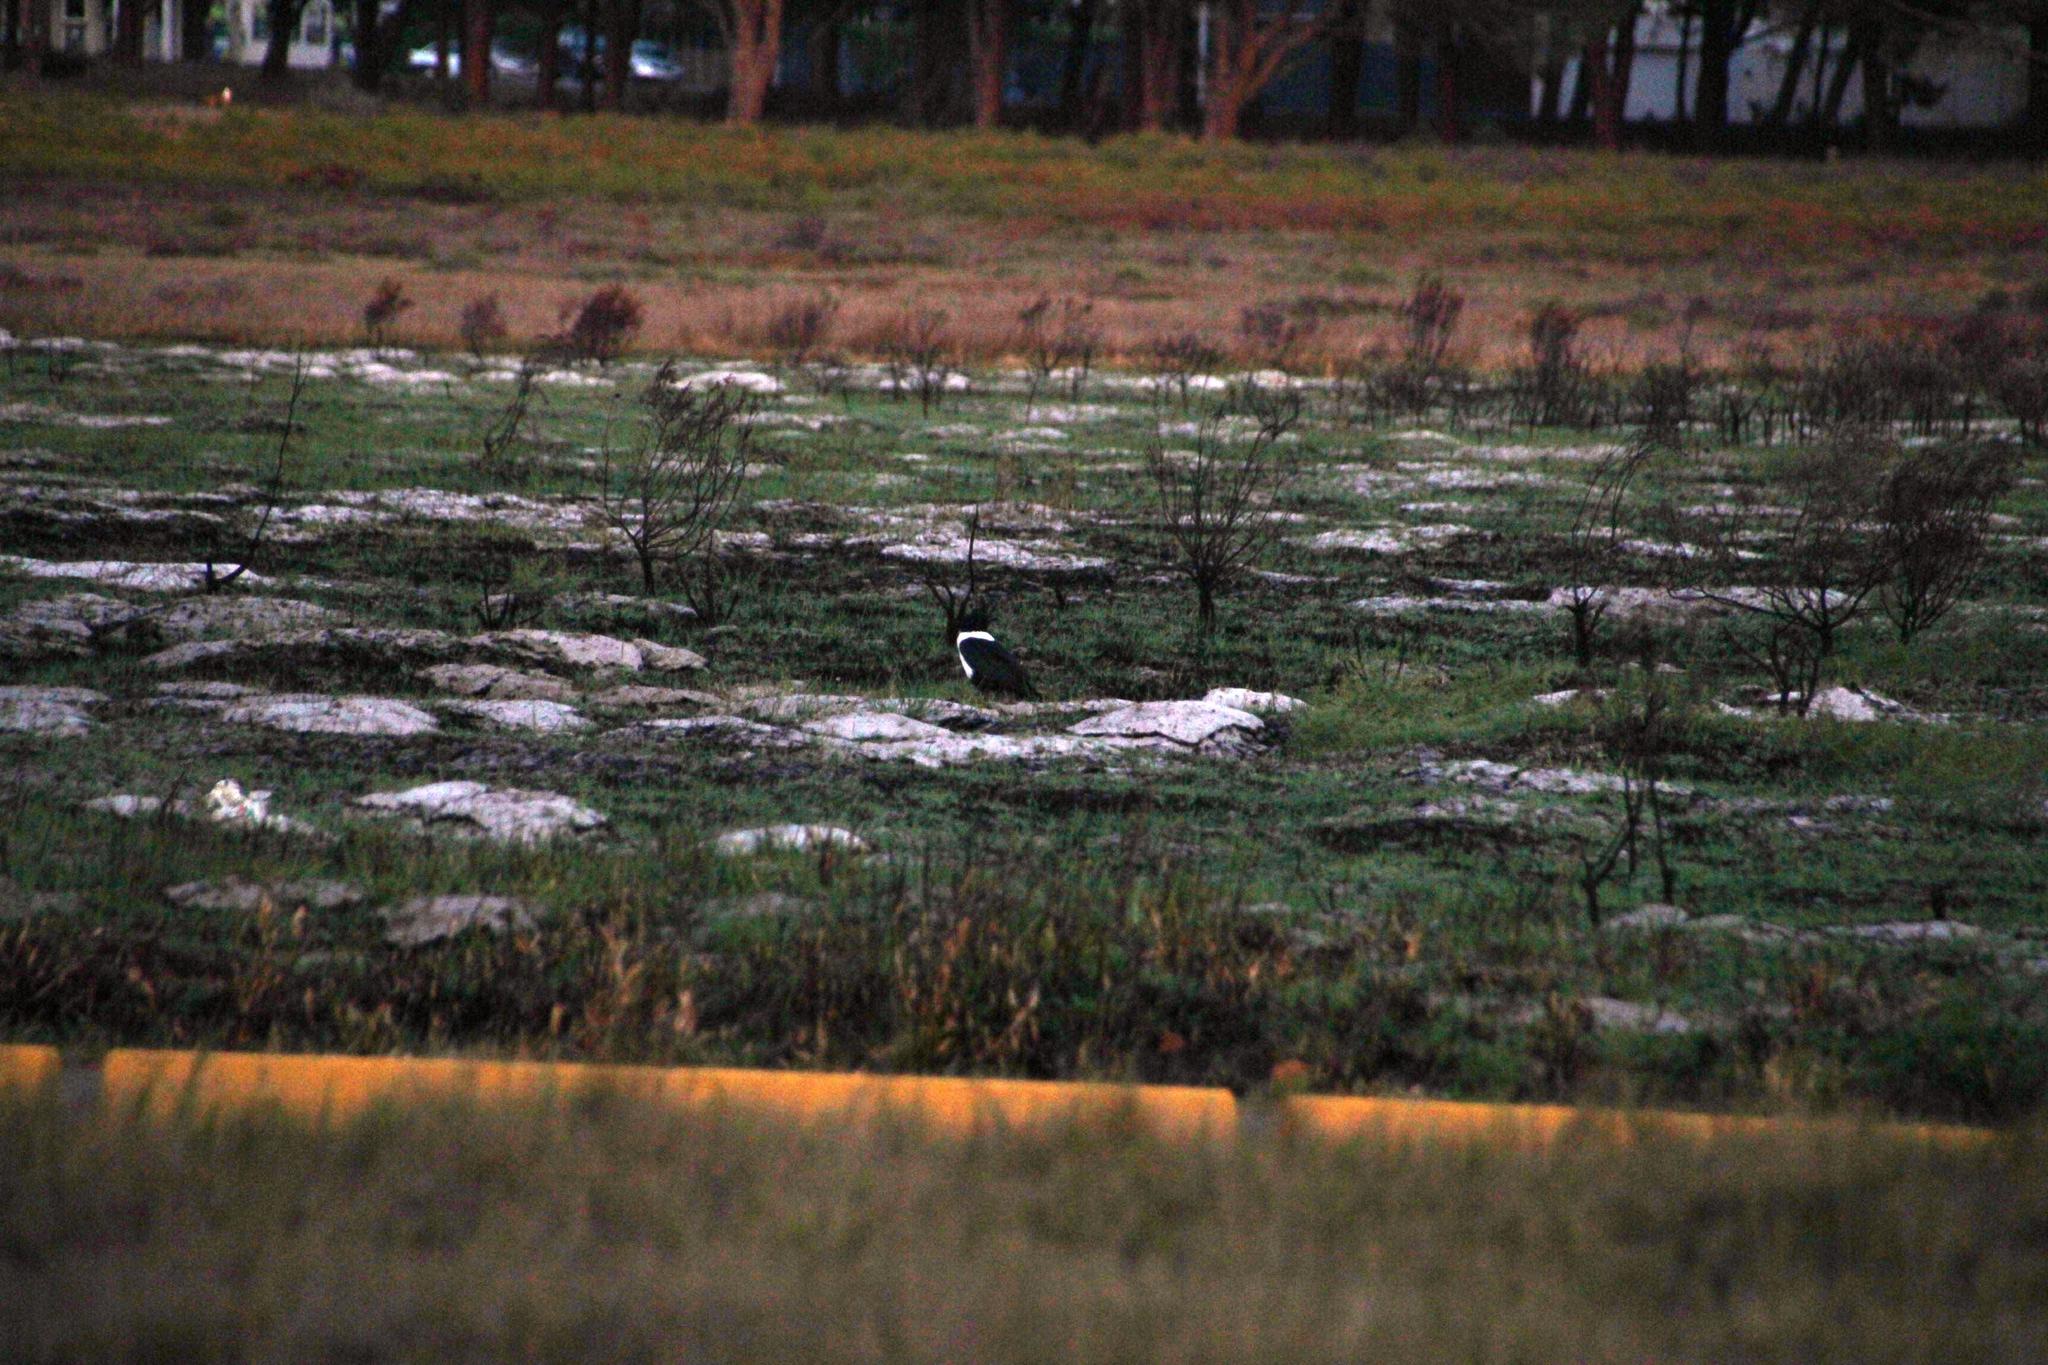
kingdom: Animalia
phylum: Chordata
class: Aves
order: Passeriformes
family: Corvidae
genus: Corvus
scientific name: Corvus albus
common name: Pied crow
